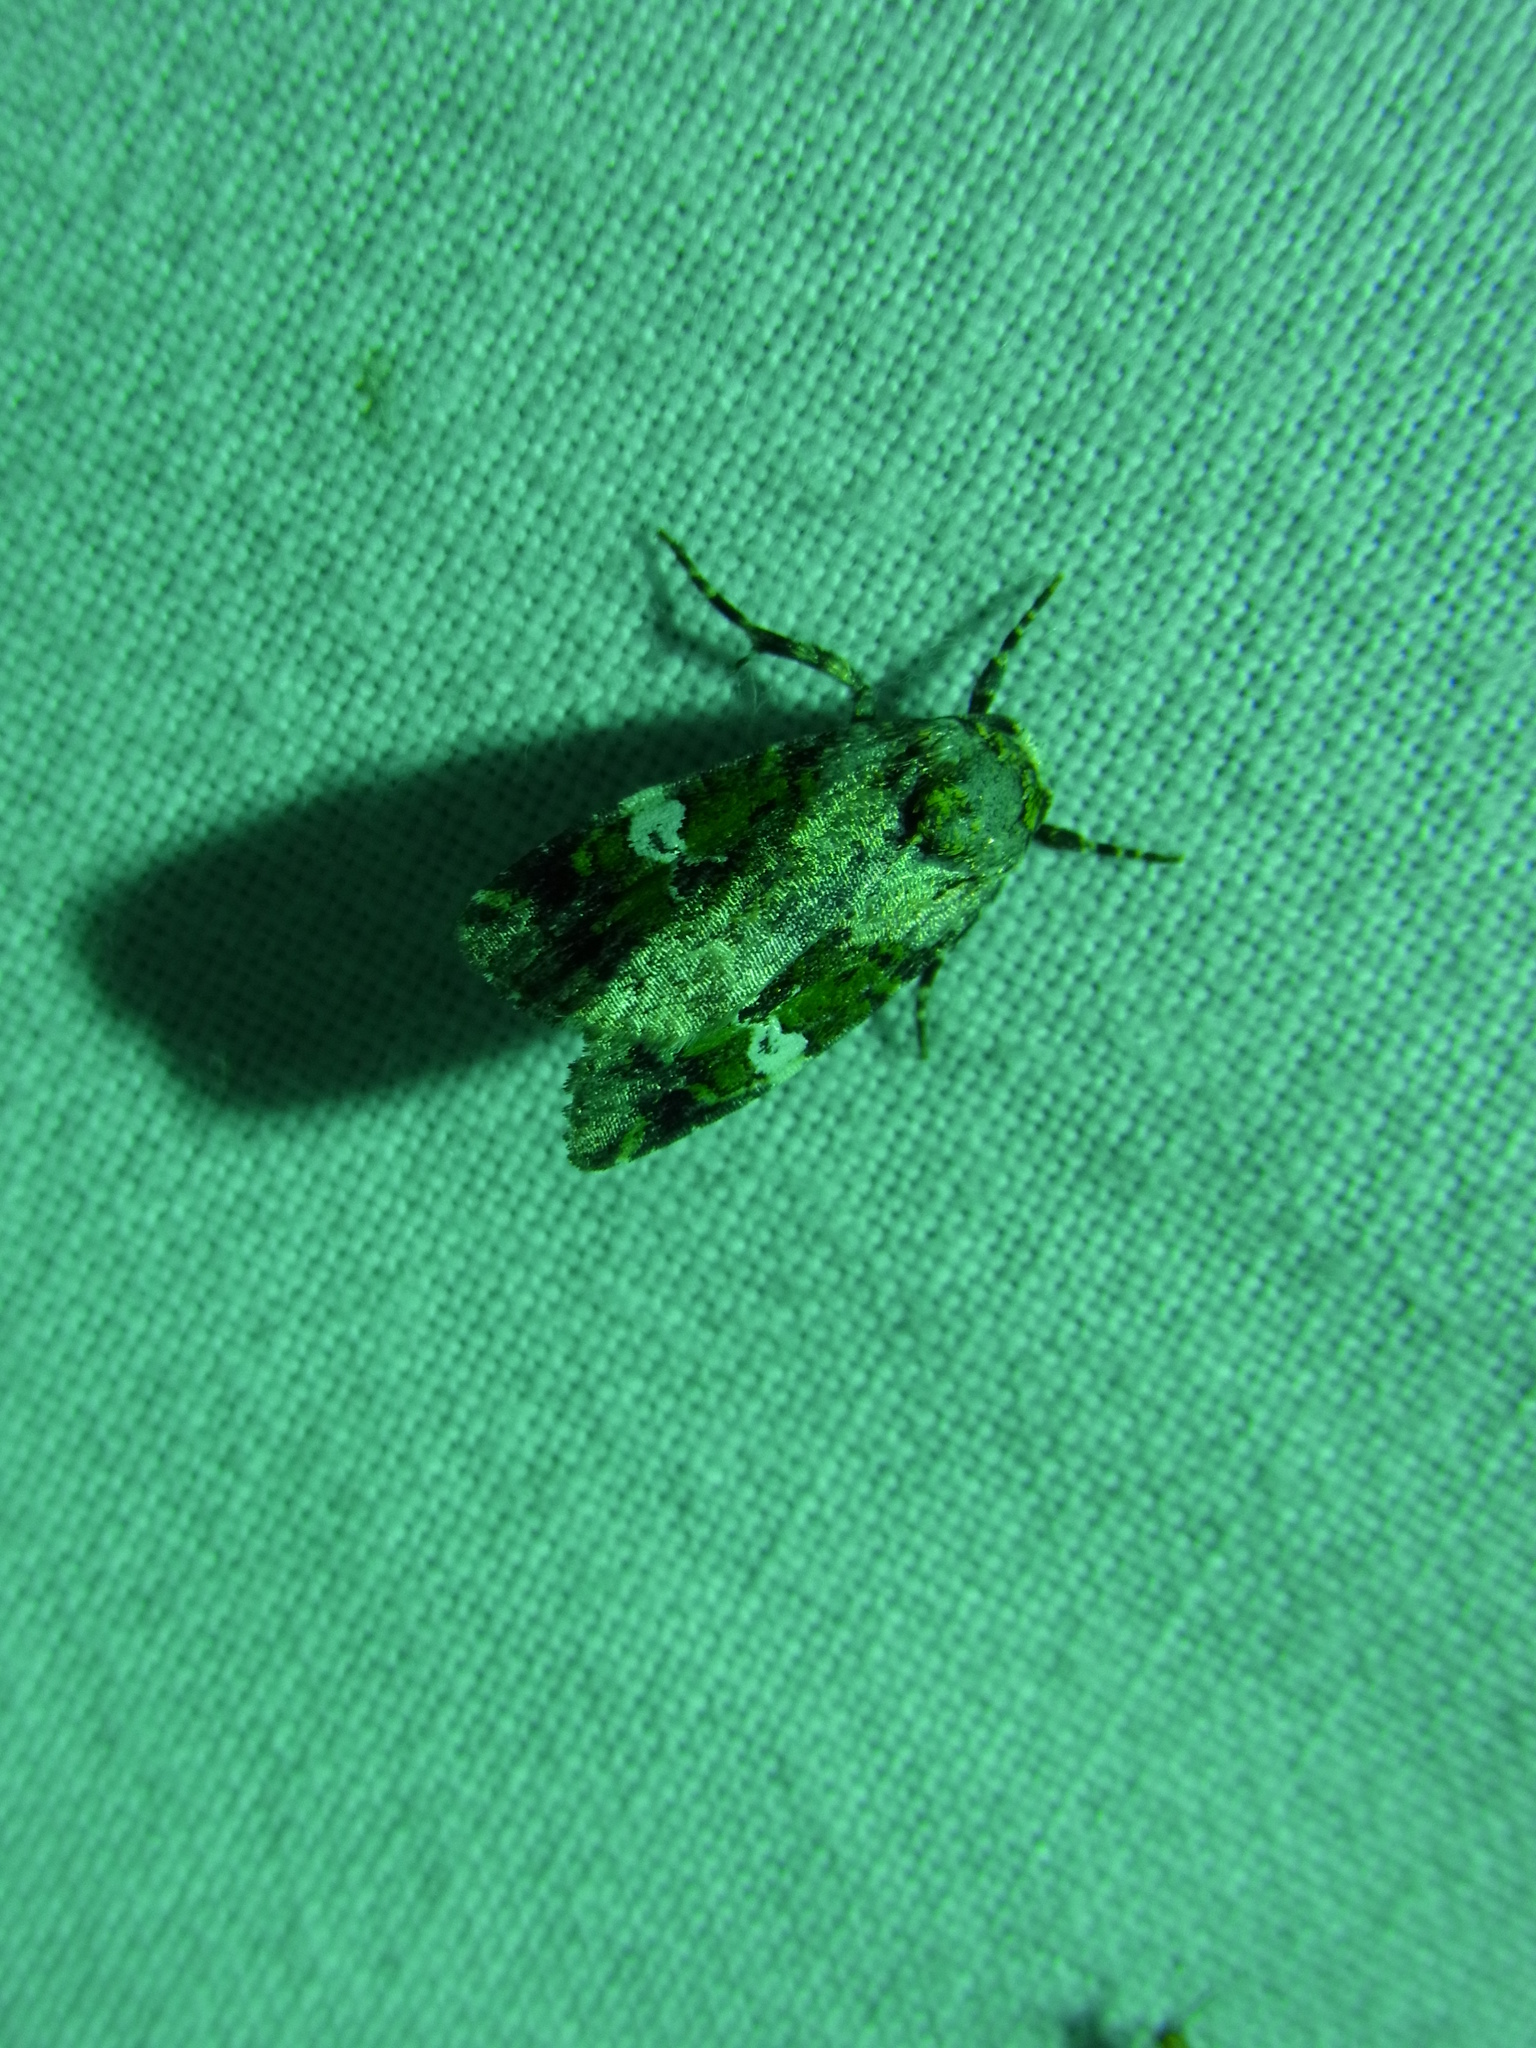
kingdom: Animalia
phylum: Arthropoda
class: Insecta
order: Lepidoptera
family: Noctuidae
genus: Prometopus
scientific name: Prometopus flavicollis
